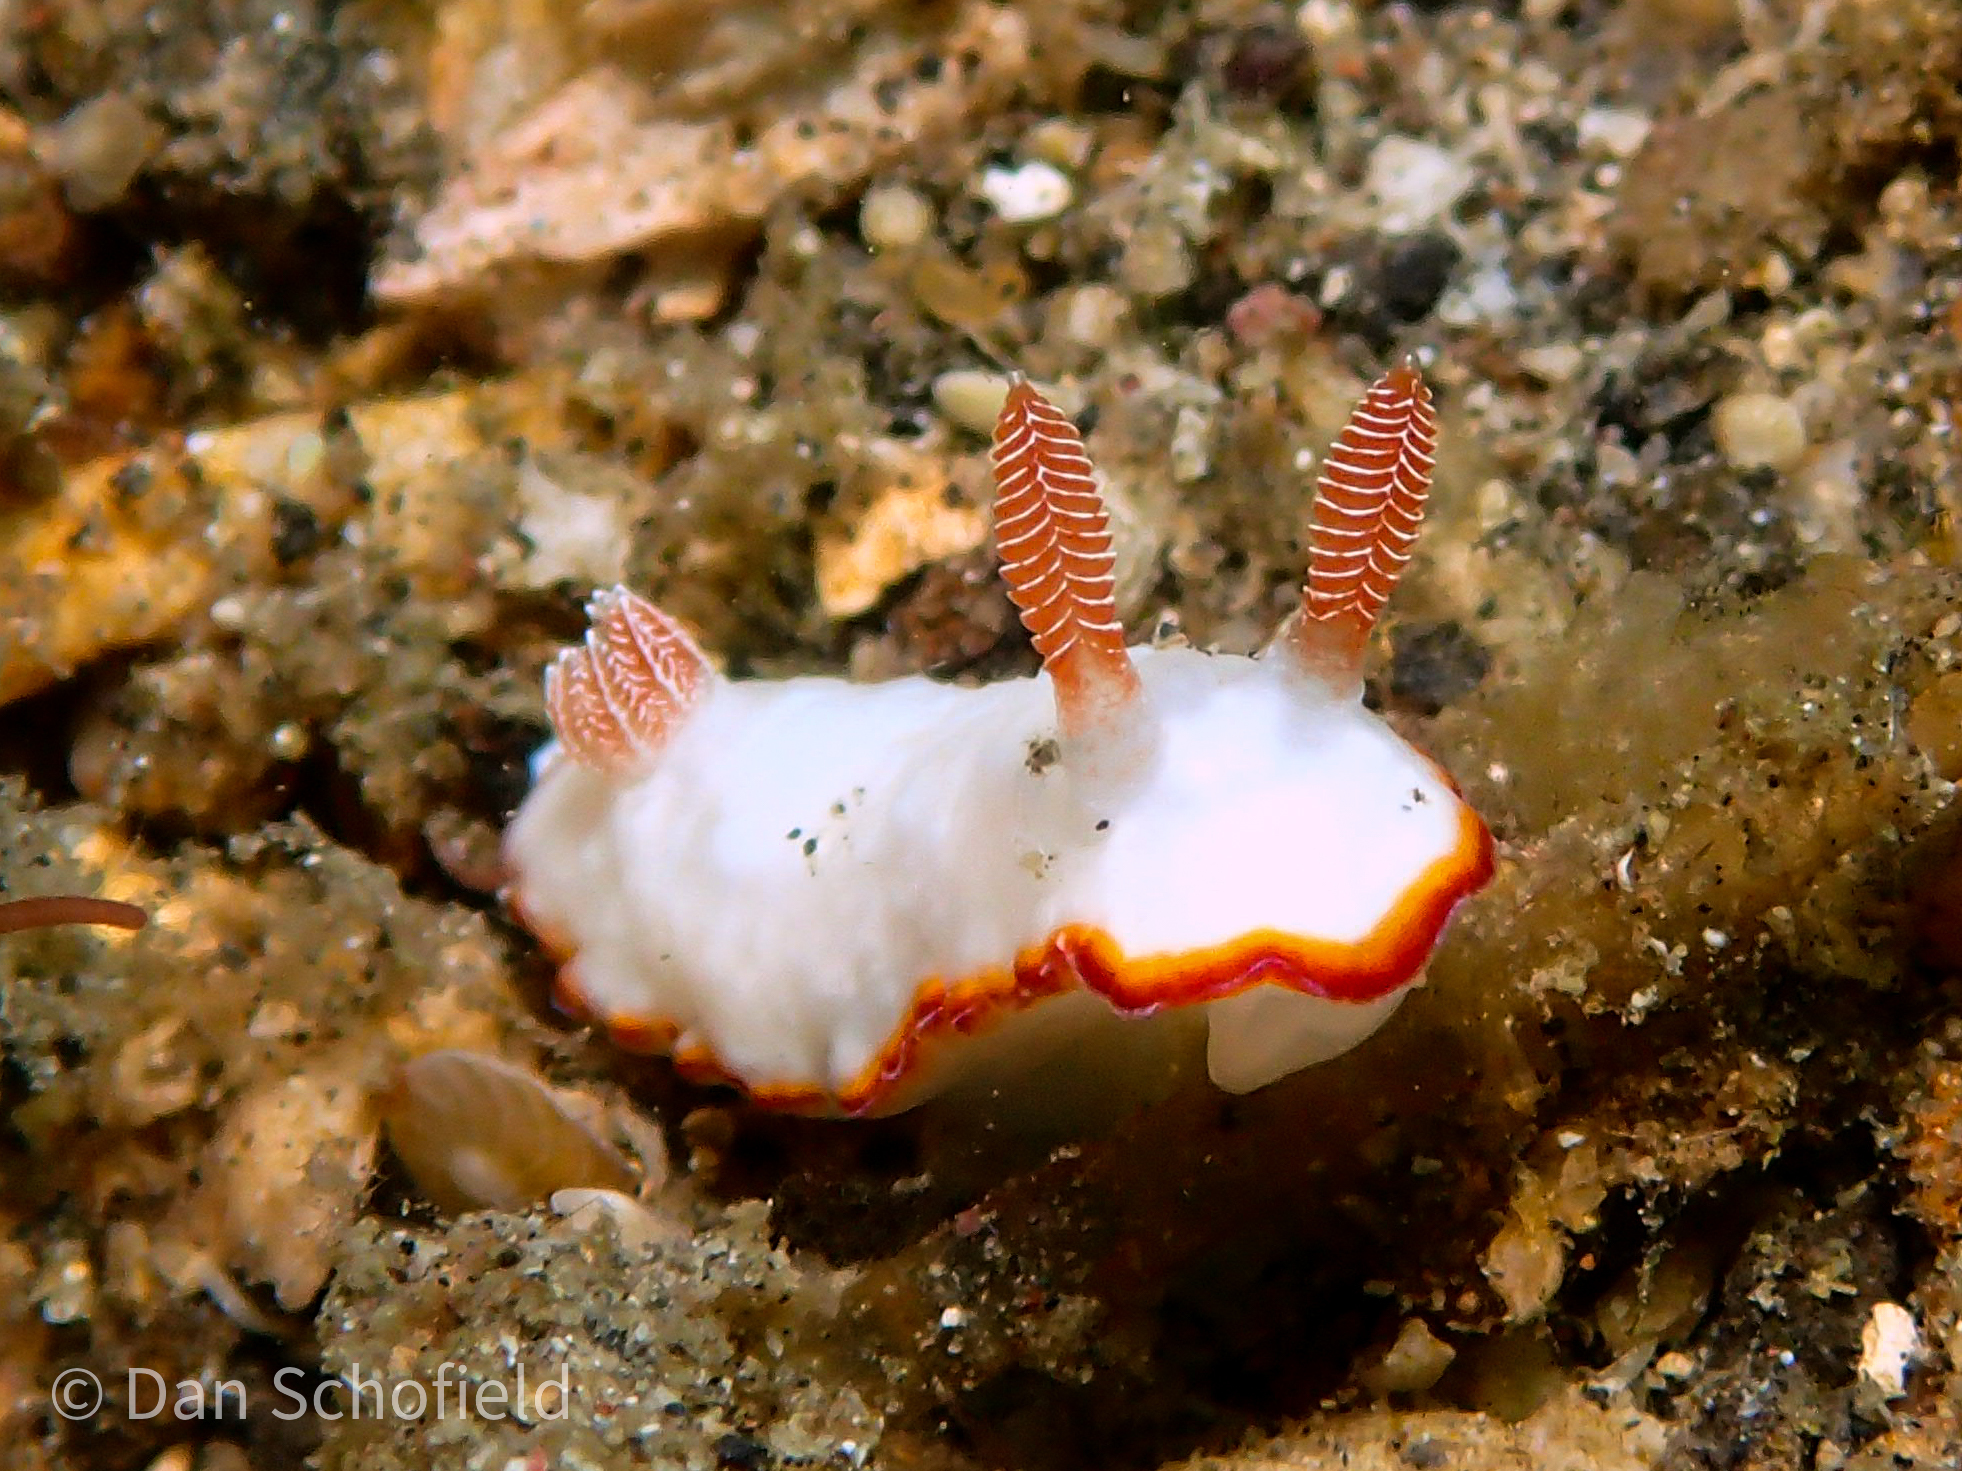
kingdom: Animalia
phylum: Mollusca
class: Gastropoda
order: Nudibranchia
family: Chromodorididae
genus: Goniobranchus
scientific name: Goniobranchus verrieri
